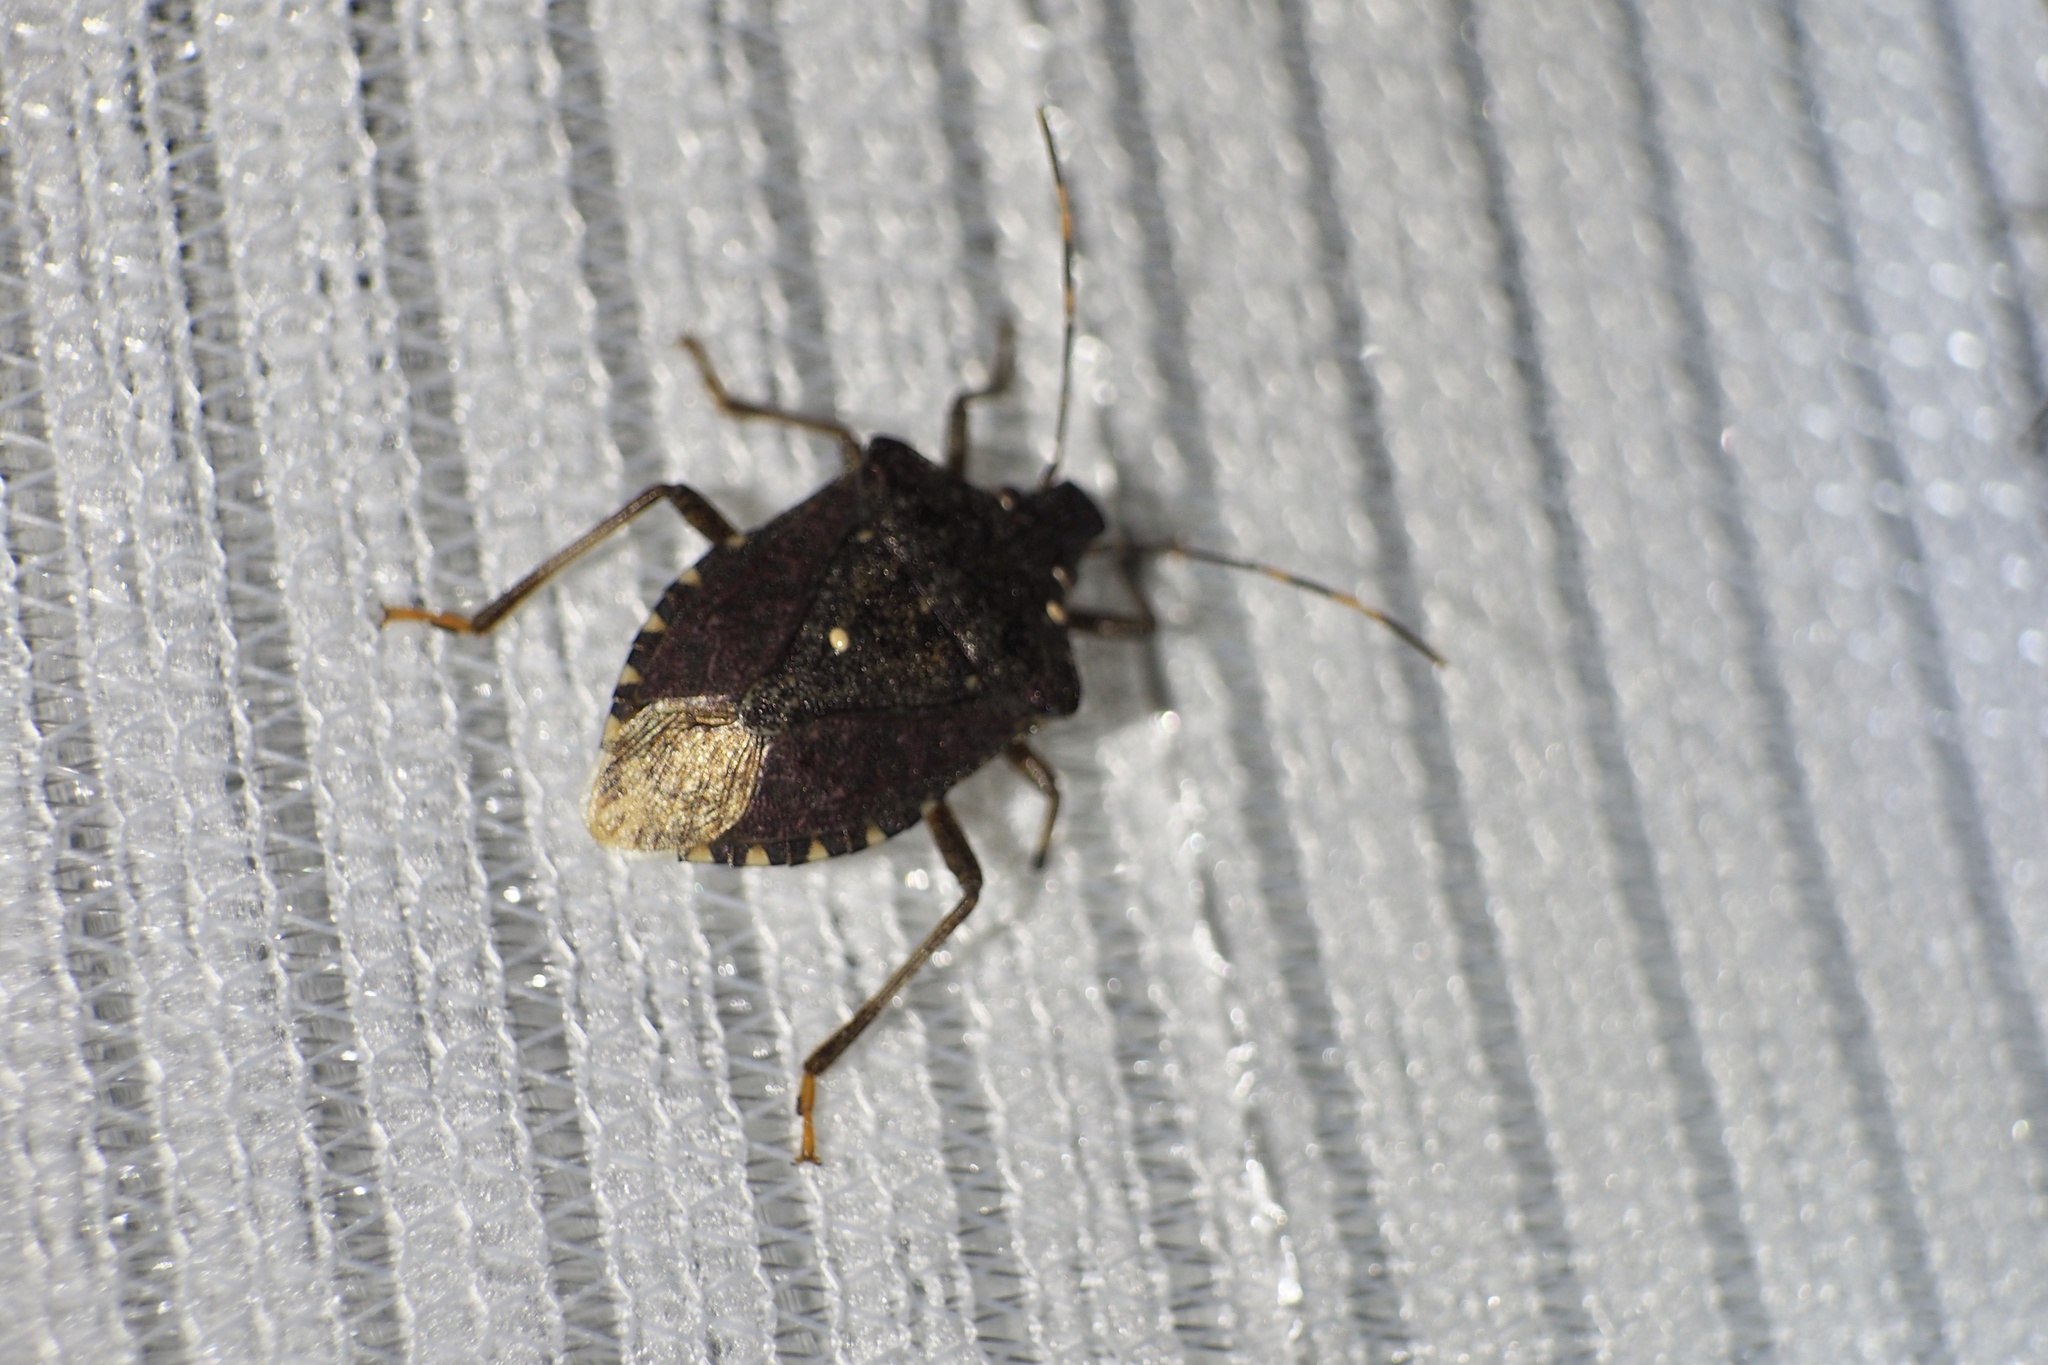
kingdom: Animalia
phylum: Arthropoda
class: Insecta
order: Hemiptera
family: Pentatomidae
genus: Halyomorpha
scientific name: Halyomorpha halys
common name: Brown marmorated stink bug
